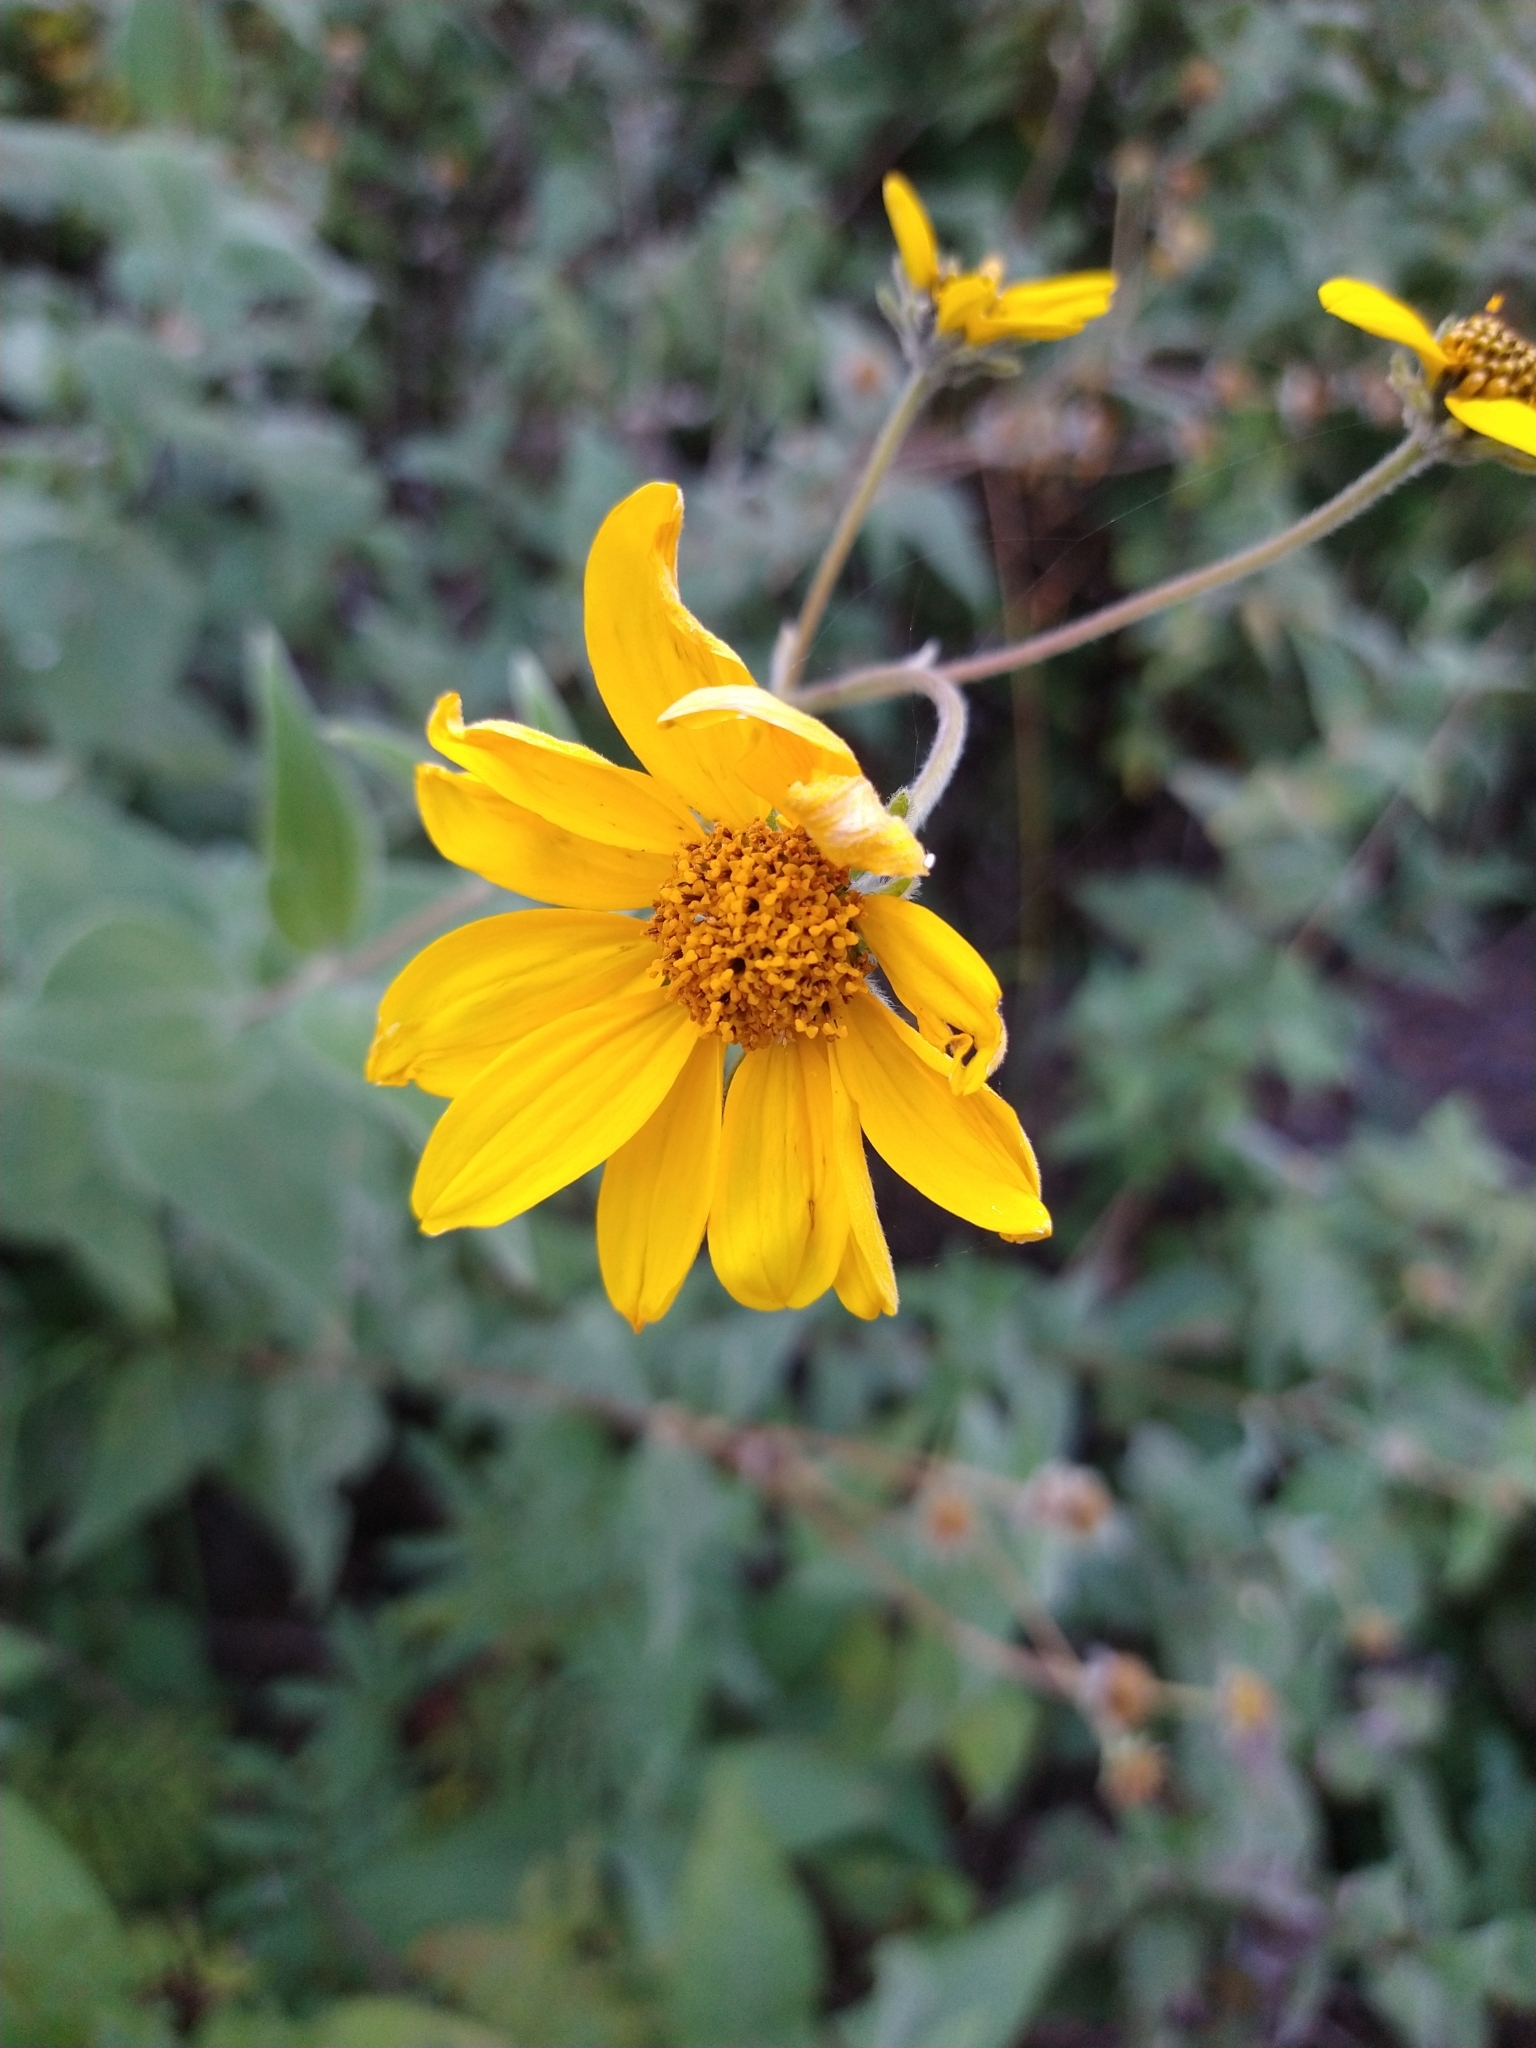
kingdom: Plantae
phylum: Tracheophyta
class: Magnoliopsida
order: Asterales
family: Asteraceae
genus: Bahiopsis
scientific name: Bahiopsis tomentosa
